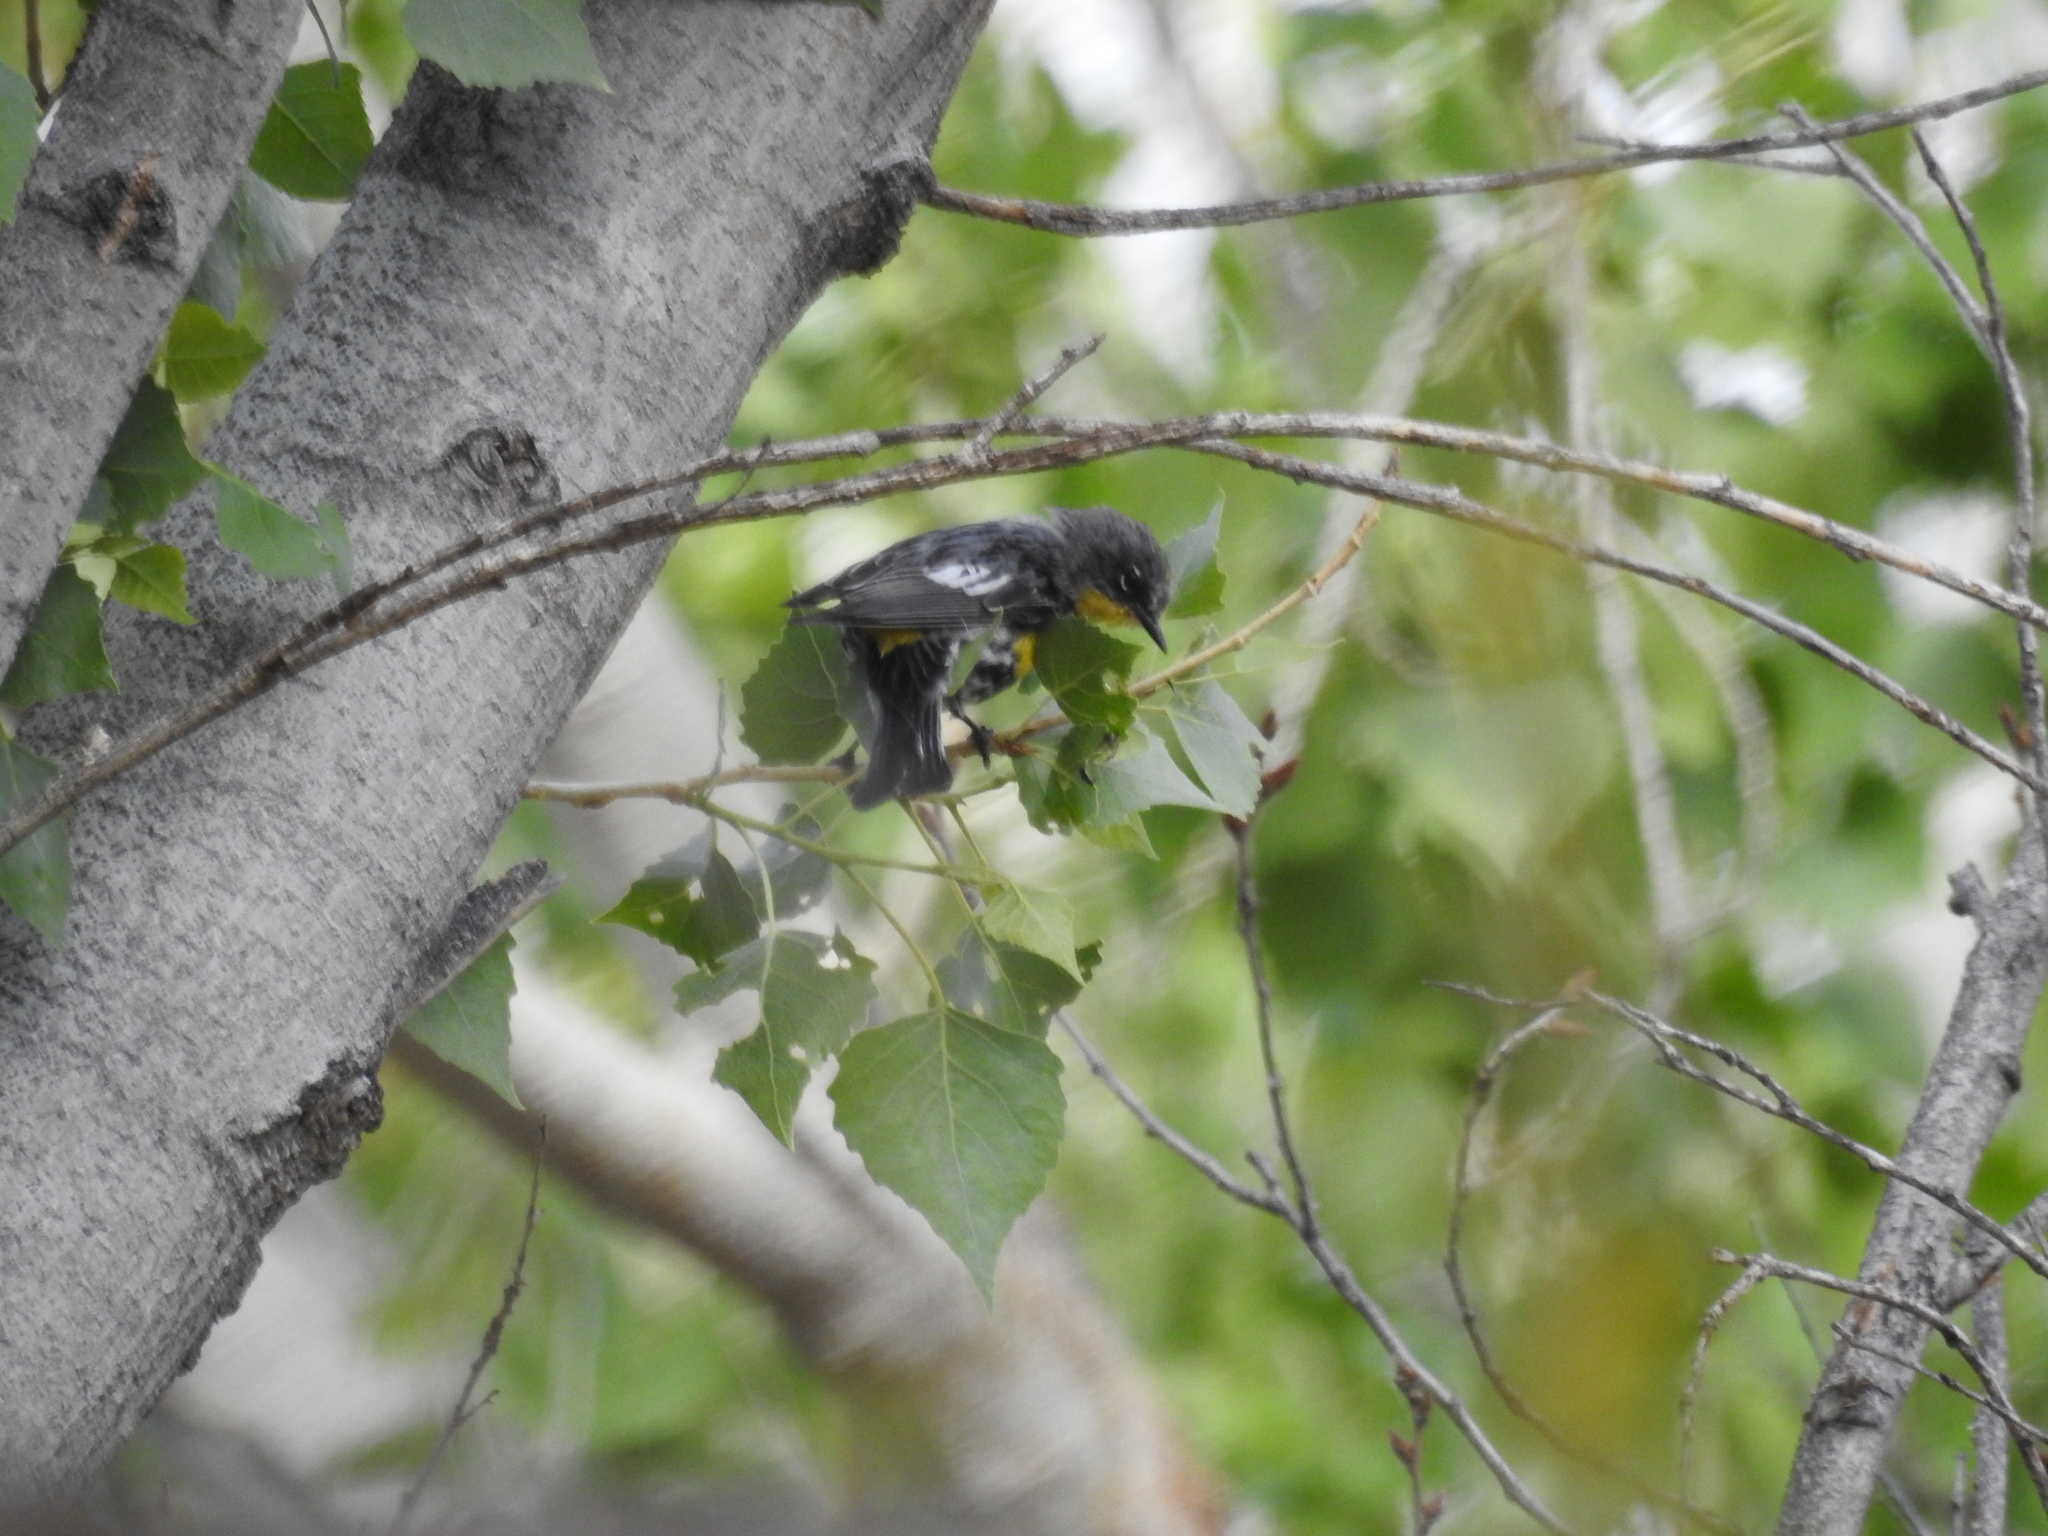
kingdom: Animalia
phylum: Chordata
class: Aves
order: Passeriformes
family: Parulidae
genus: Setophaga
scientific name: Setophaga auduboni
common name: Audubon's warbler
